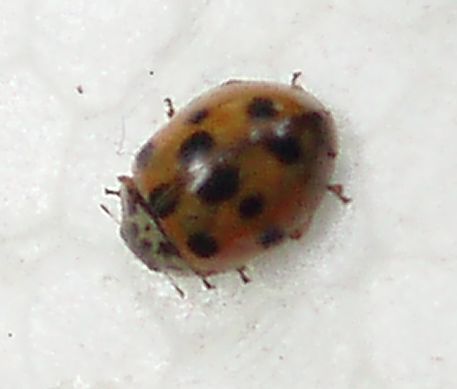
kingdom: Animalia
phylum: Arthropoda
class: Insecta
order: Coleoptera
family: Coccinellidae
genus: Adalia
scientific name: Adalia decempunctata
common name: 10-spot ladybird
